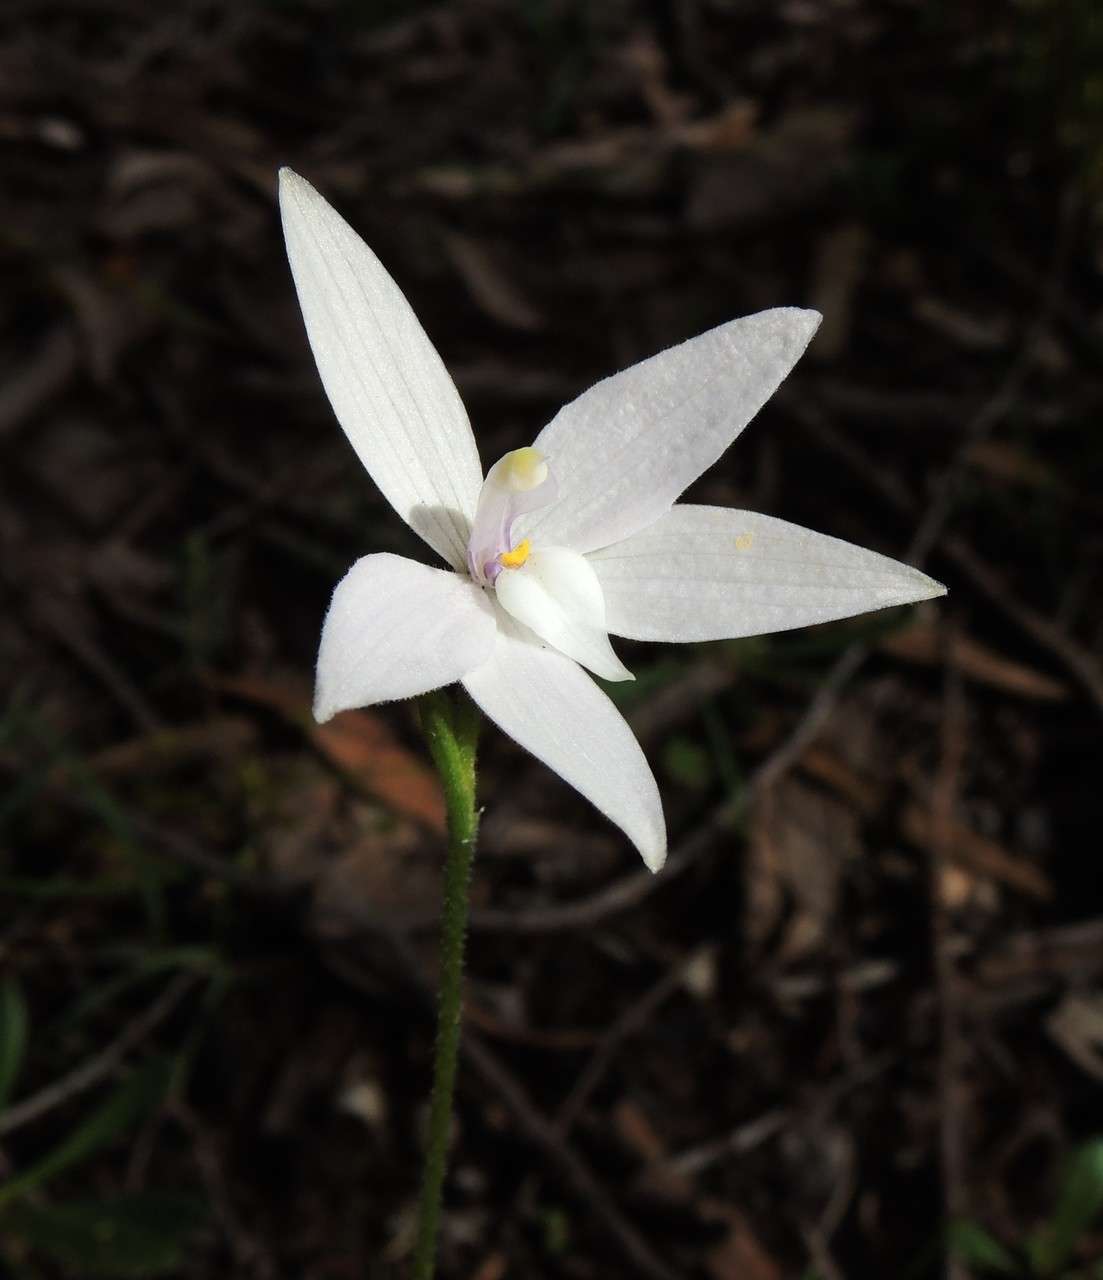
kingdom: Plantae
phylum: Tracheophyta
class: Liliopsida
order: Asparagales
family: Orchidaceae
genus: Caladenia
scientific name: Caladenia major
